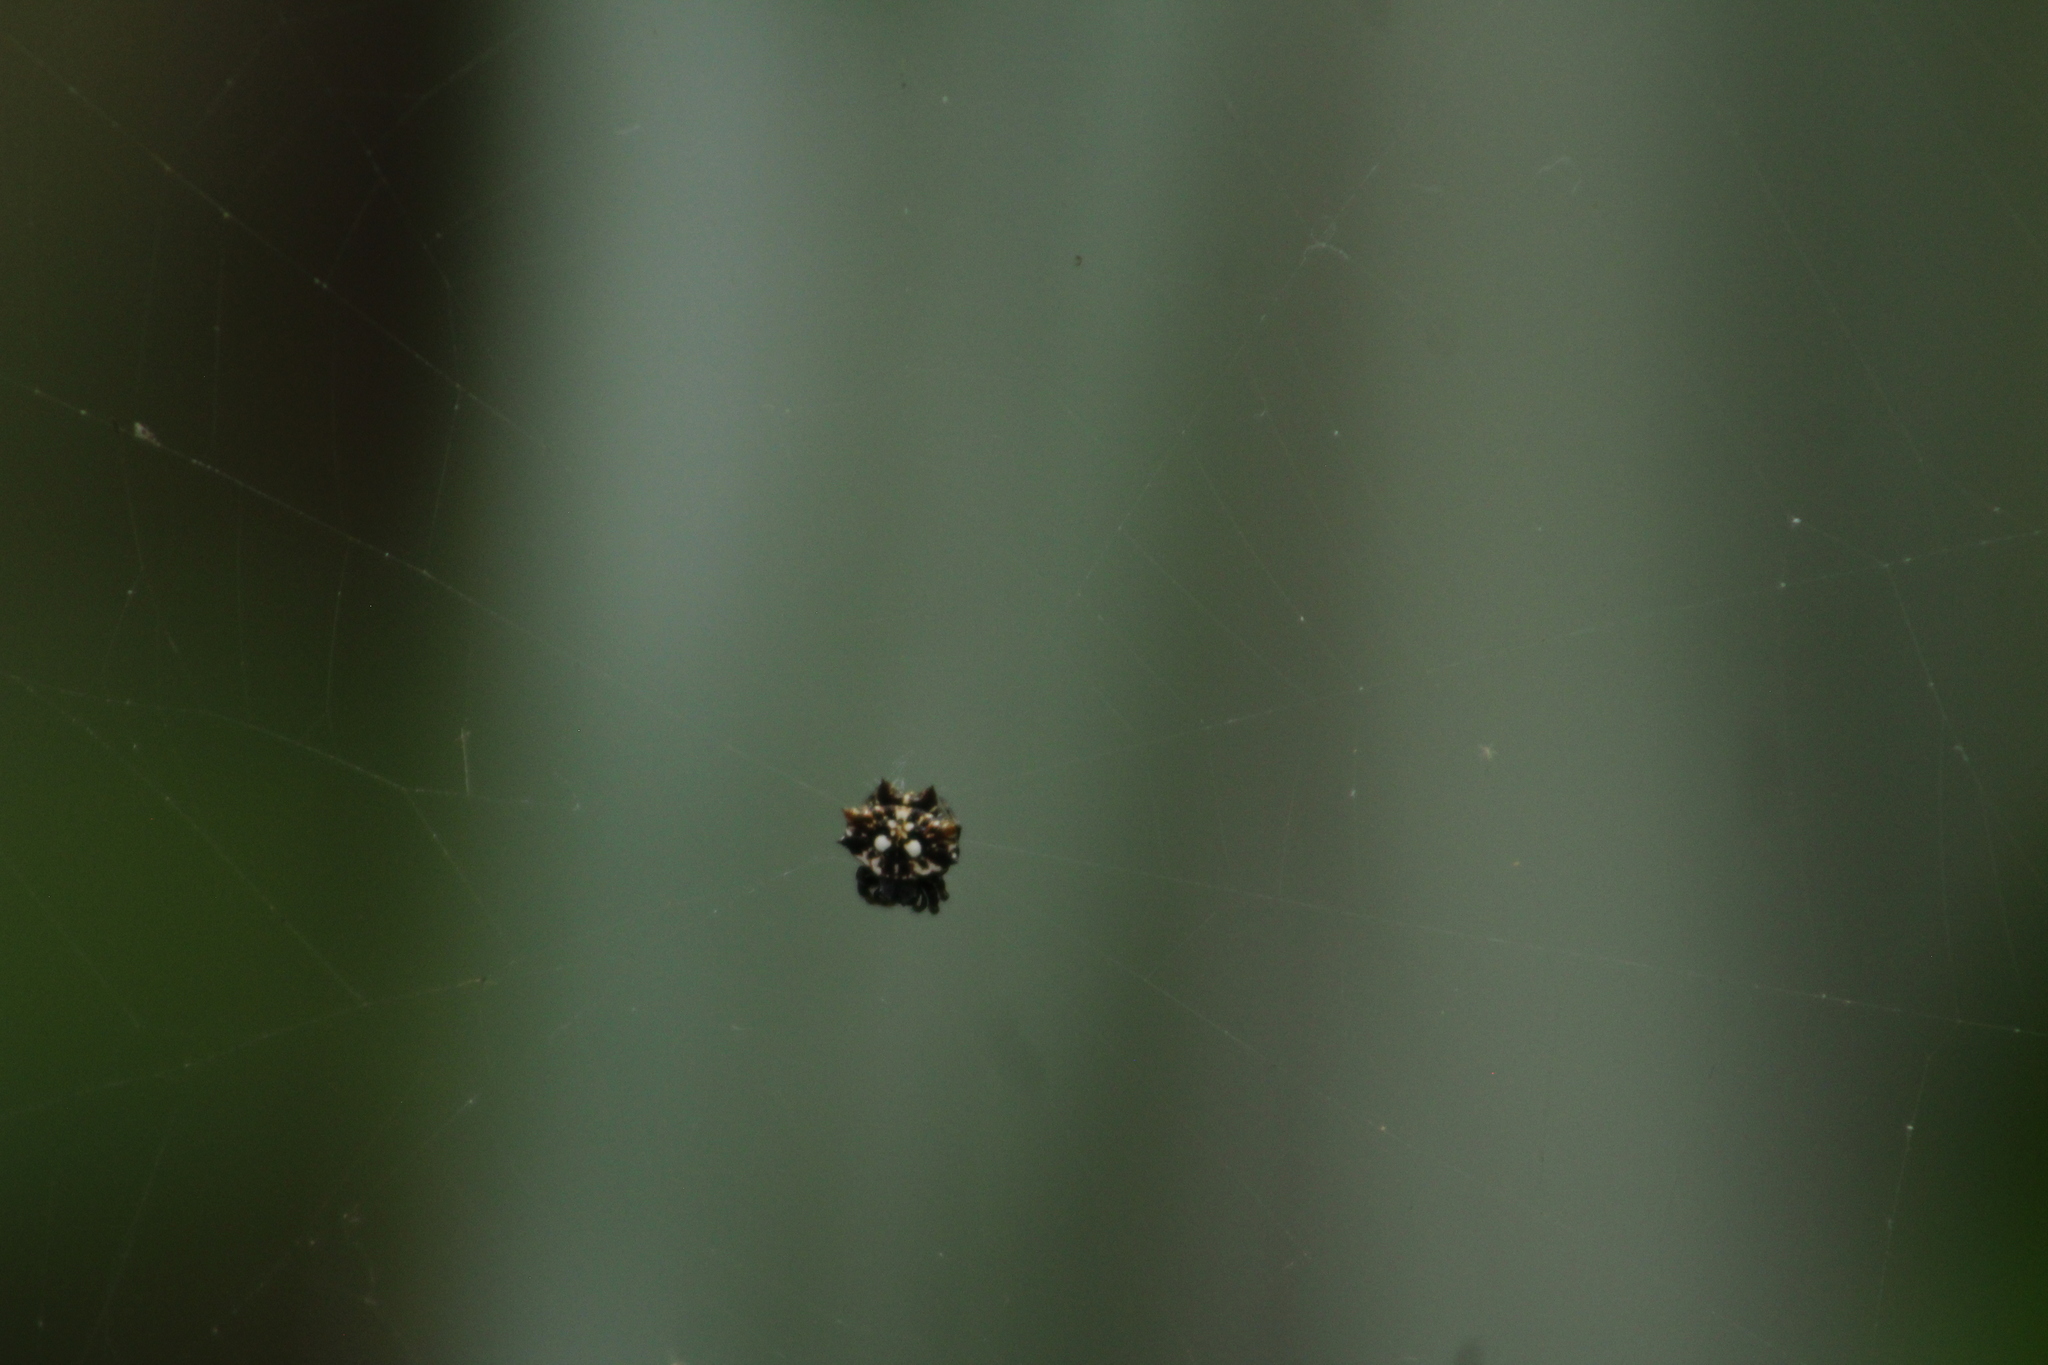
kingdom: Animalia
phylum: Arthropoda
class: Arachnida
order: Araneae
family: Araneidae
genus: Thelacantha
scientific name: Thelacantha brevispina
